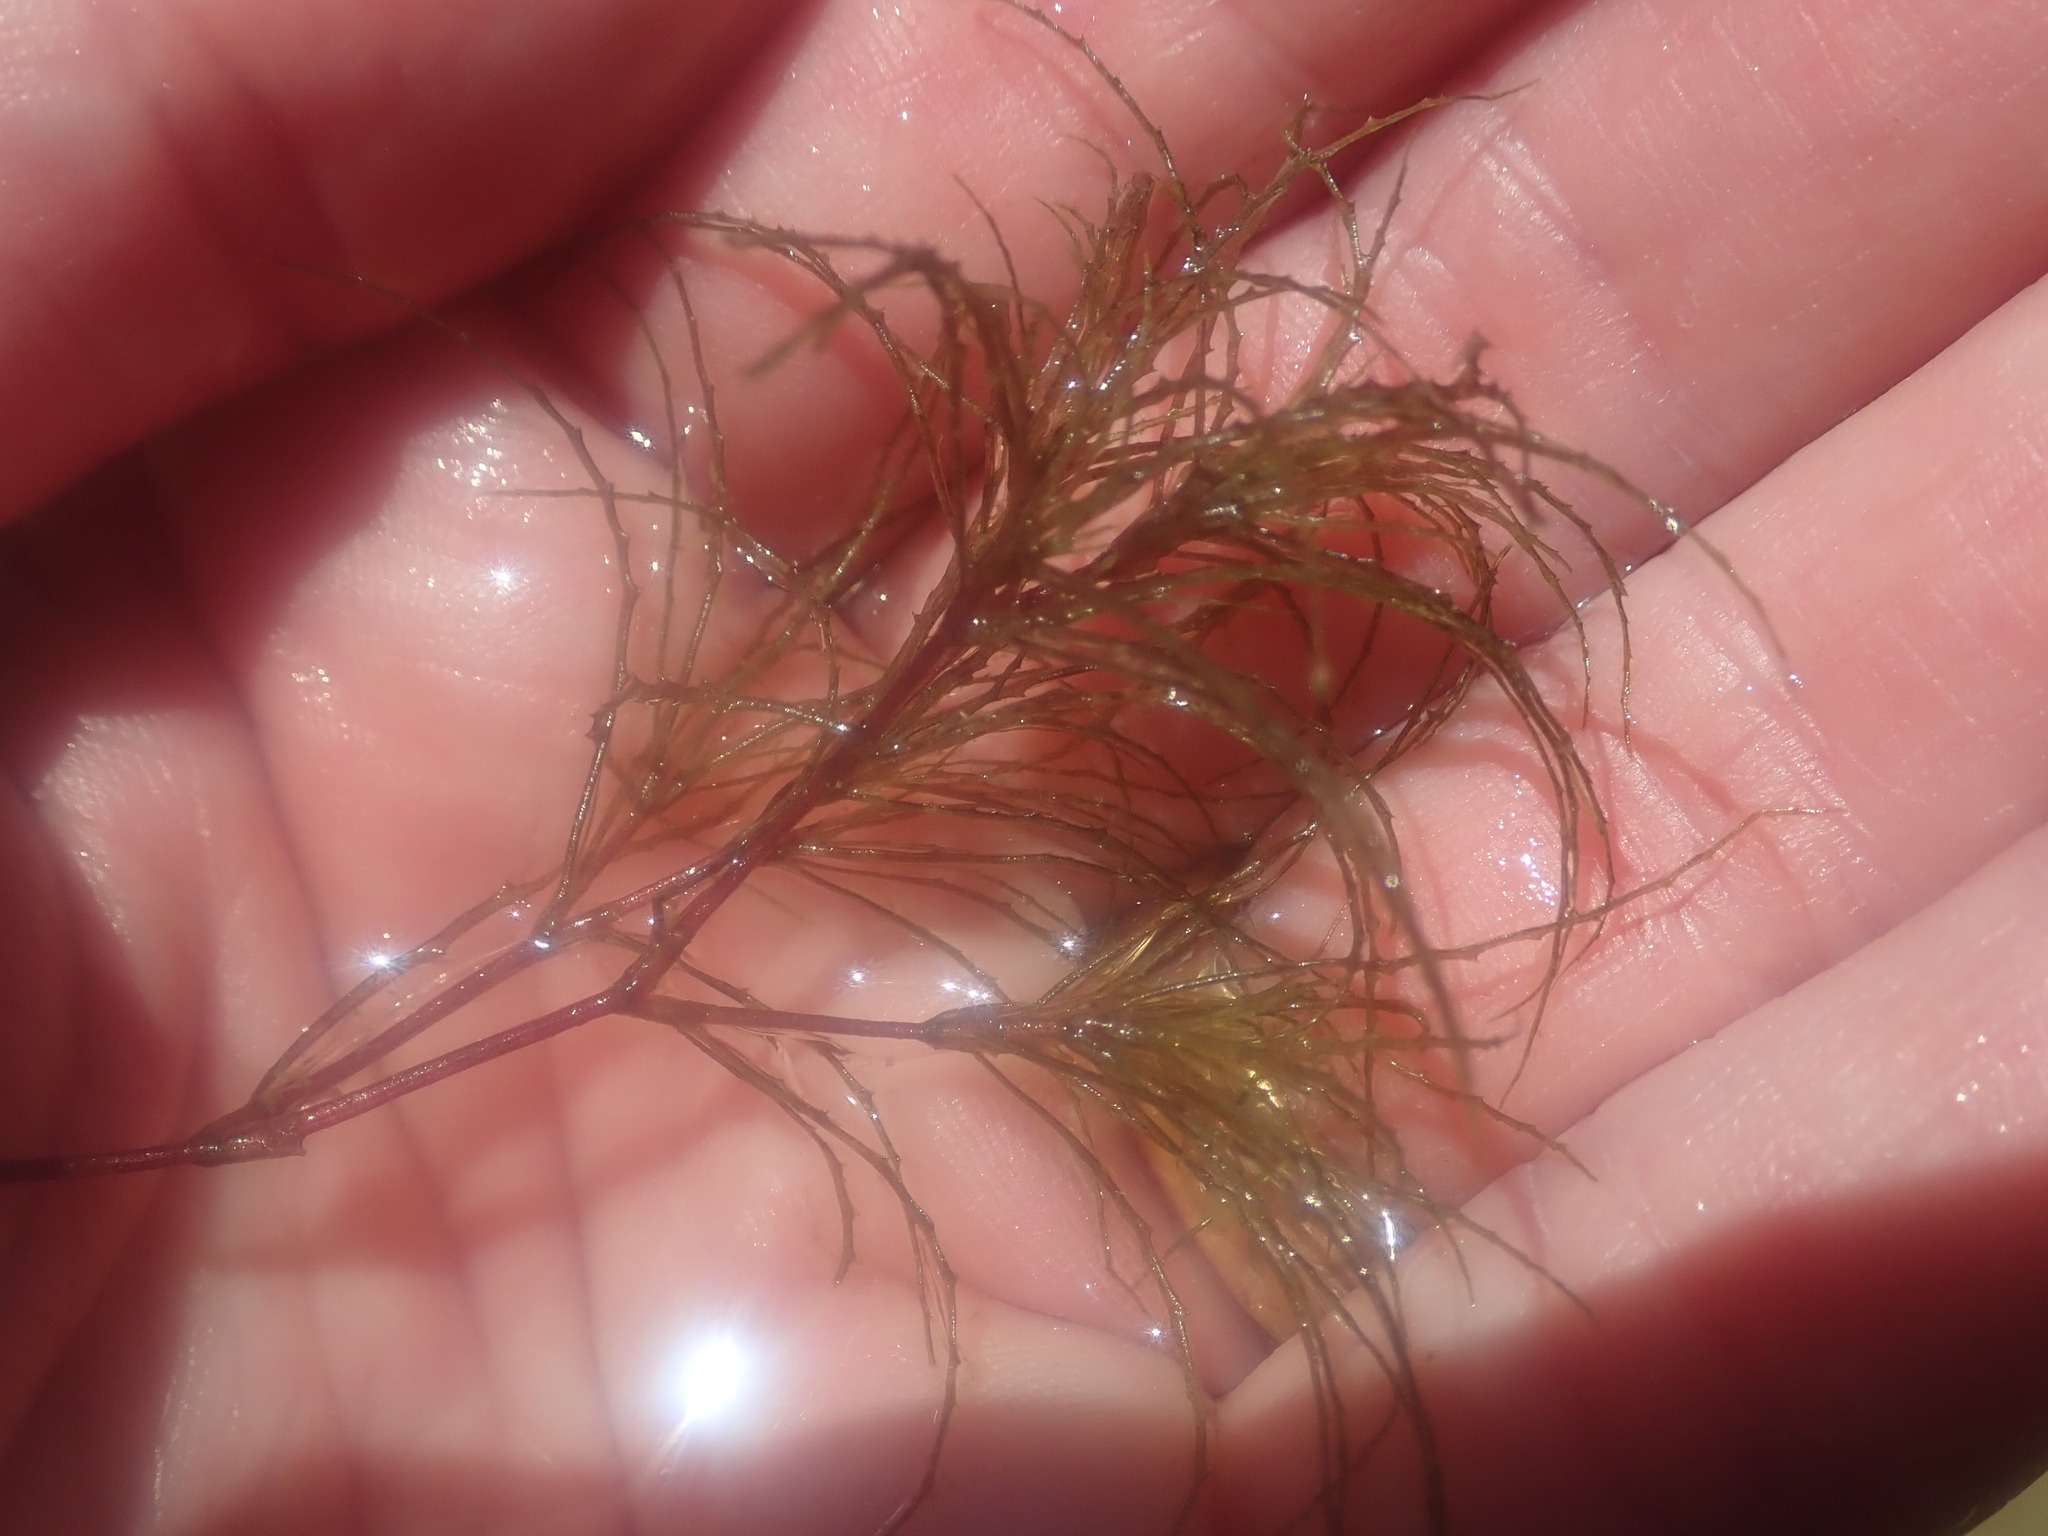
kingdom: Plantae
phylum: Tracheophyta
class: Liliopsida
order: Alismatales
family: Hydrocharitaceae
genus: Najas
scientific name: Najas minor
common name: Brittle naiad
